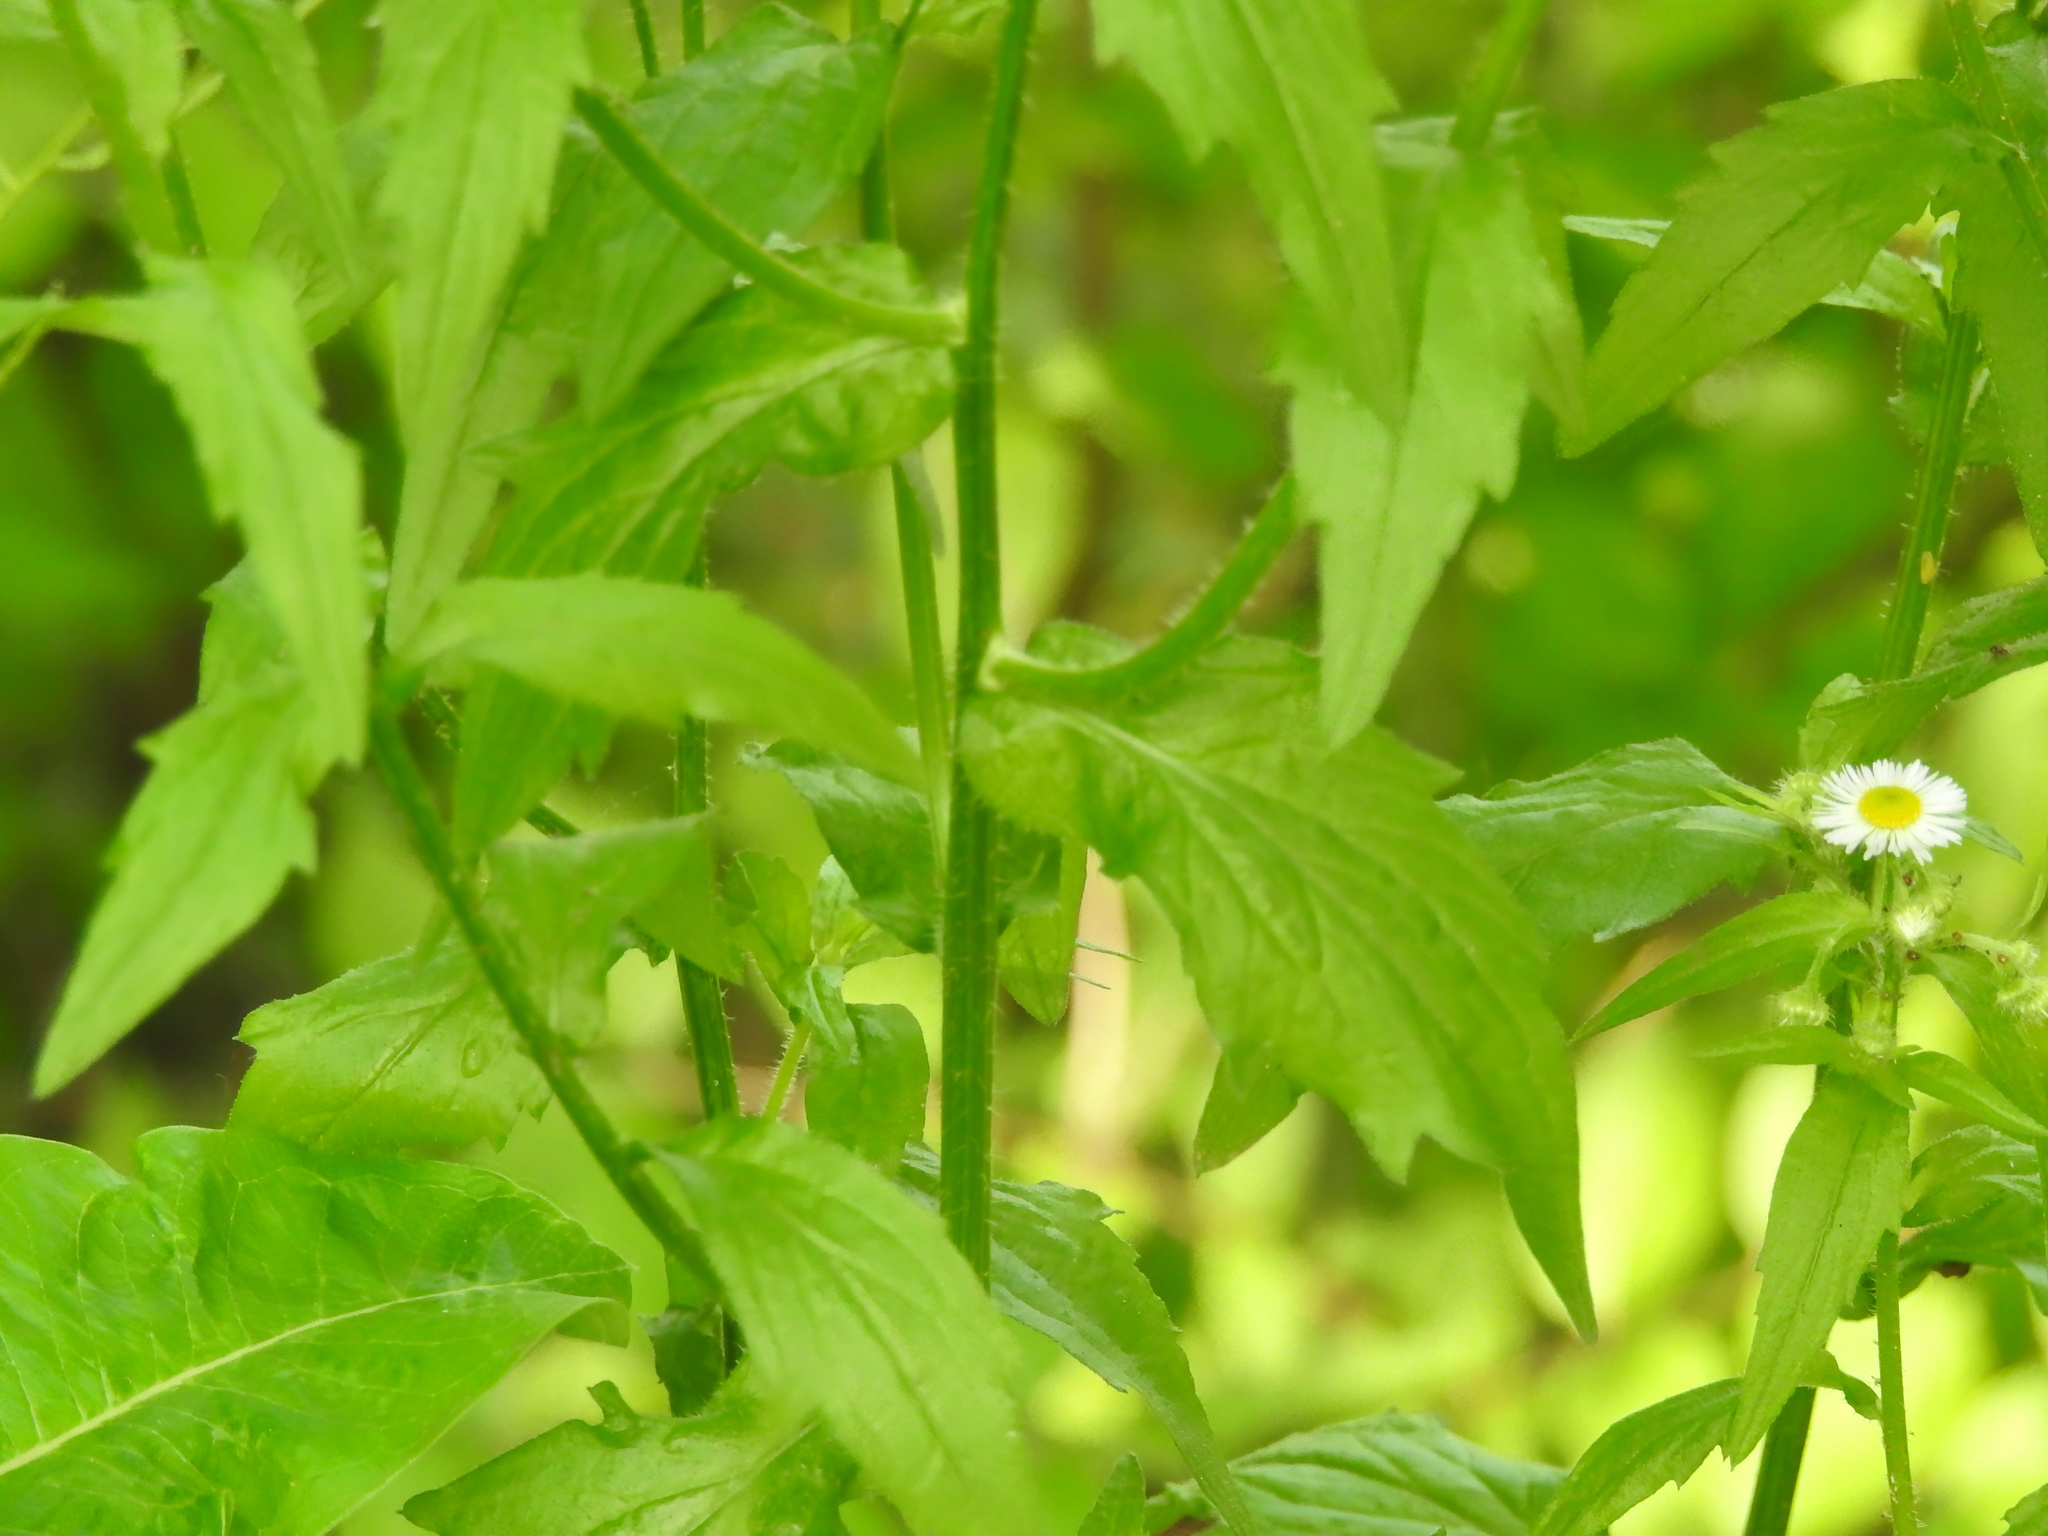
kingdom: Plantae
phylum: Tracheophyta
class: Magnoliopsida
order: Asterales
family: Asteraceae
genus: Erigeron
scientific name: Erigeron annuus
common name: Tall fleabane
